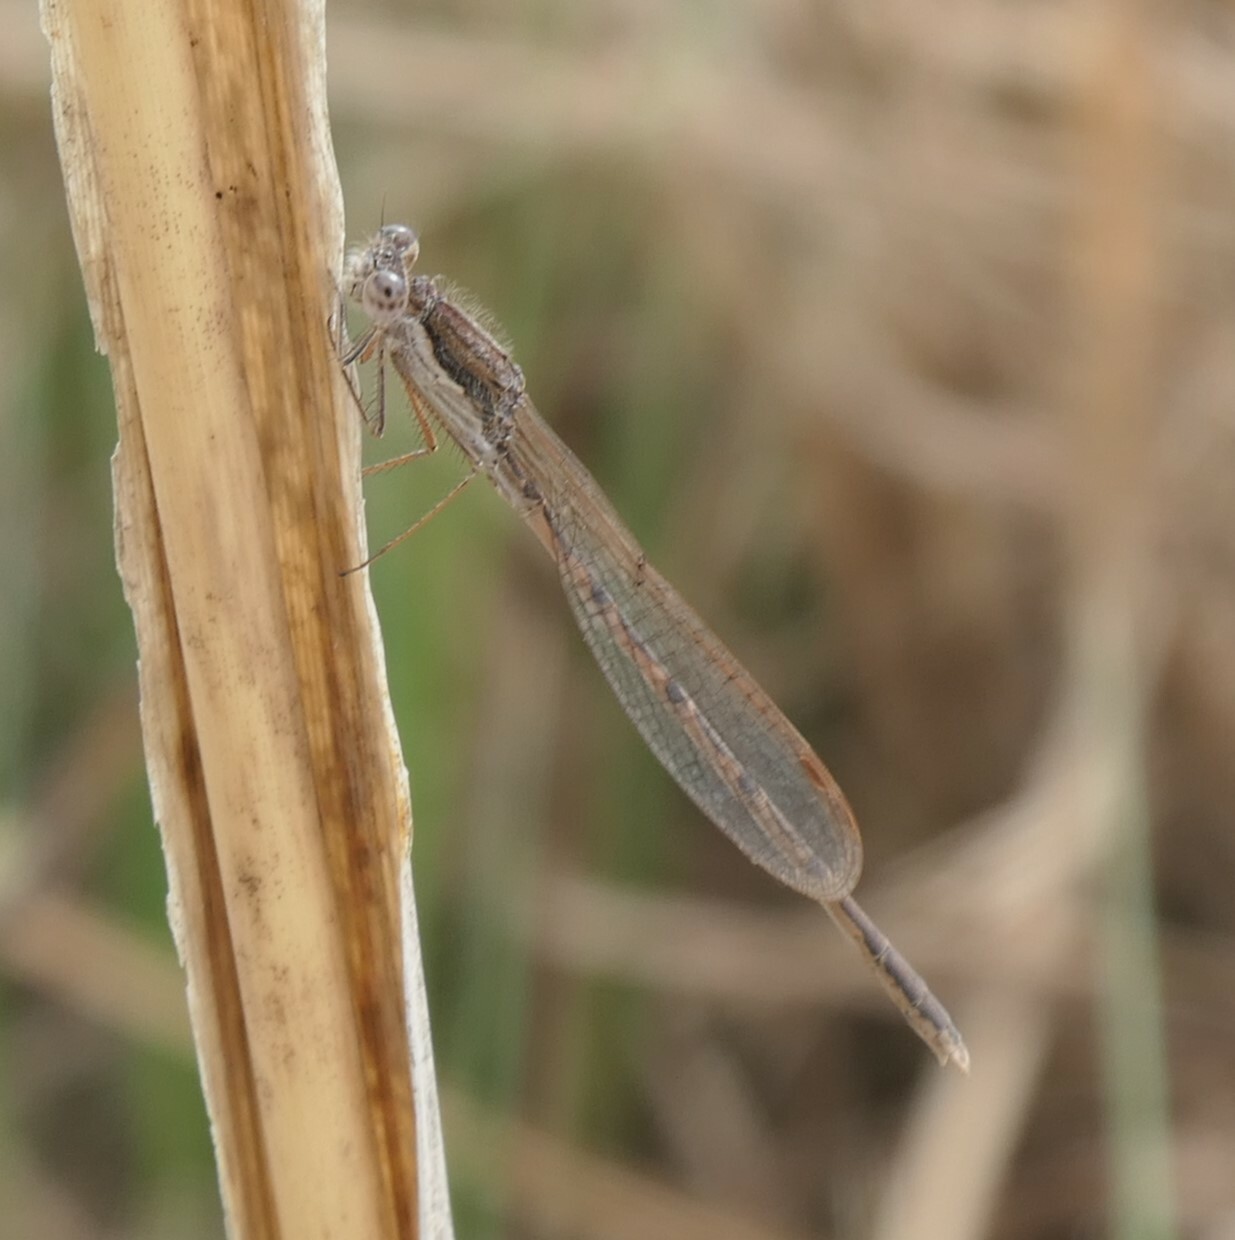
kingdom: Animalia
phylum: Arthropoda
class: Insecta
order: Odonata
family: Lestidae
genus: Sympecma
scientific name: Sympecma fusca
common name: Common winter damsel
